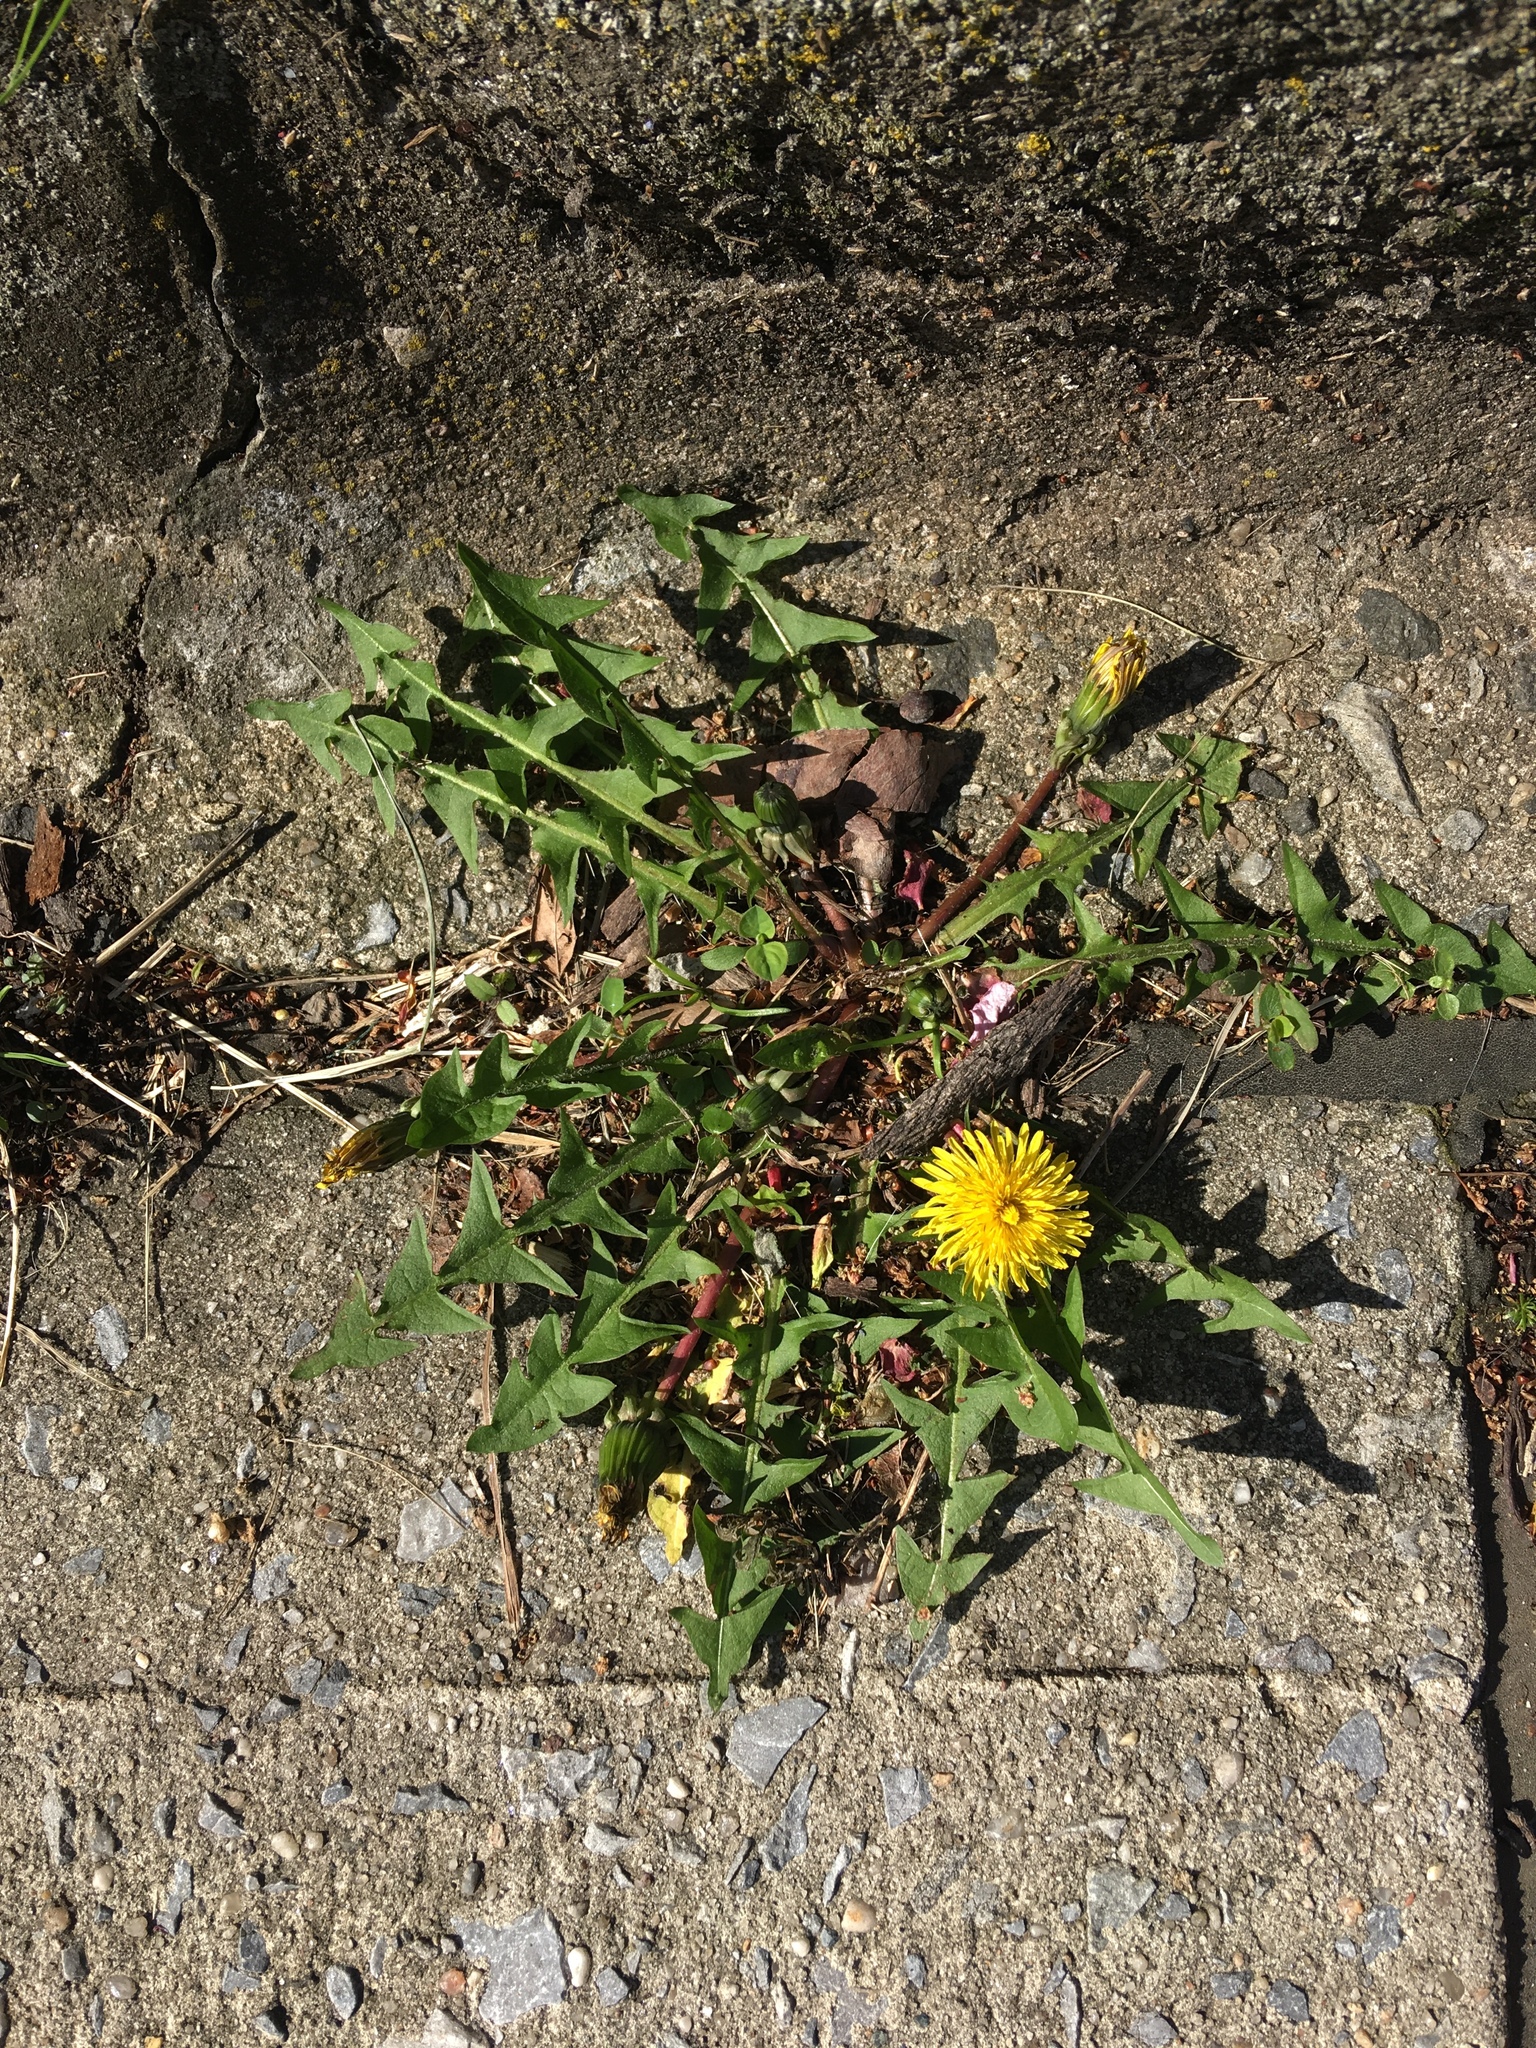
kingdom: Plantae
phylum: Tracheophyta
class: Magnoliopsida
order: Asterales
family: Asteraceae
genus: Taraxacum
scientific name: Taraxacum officinale
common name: Common dandelion
